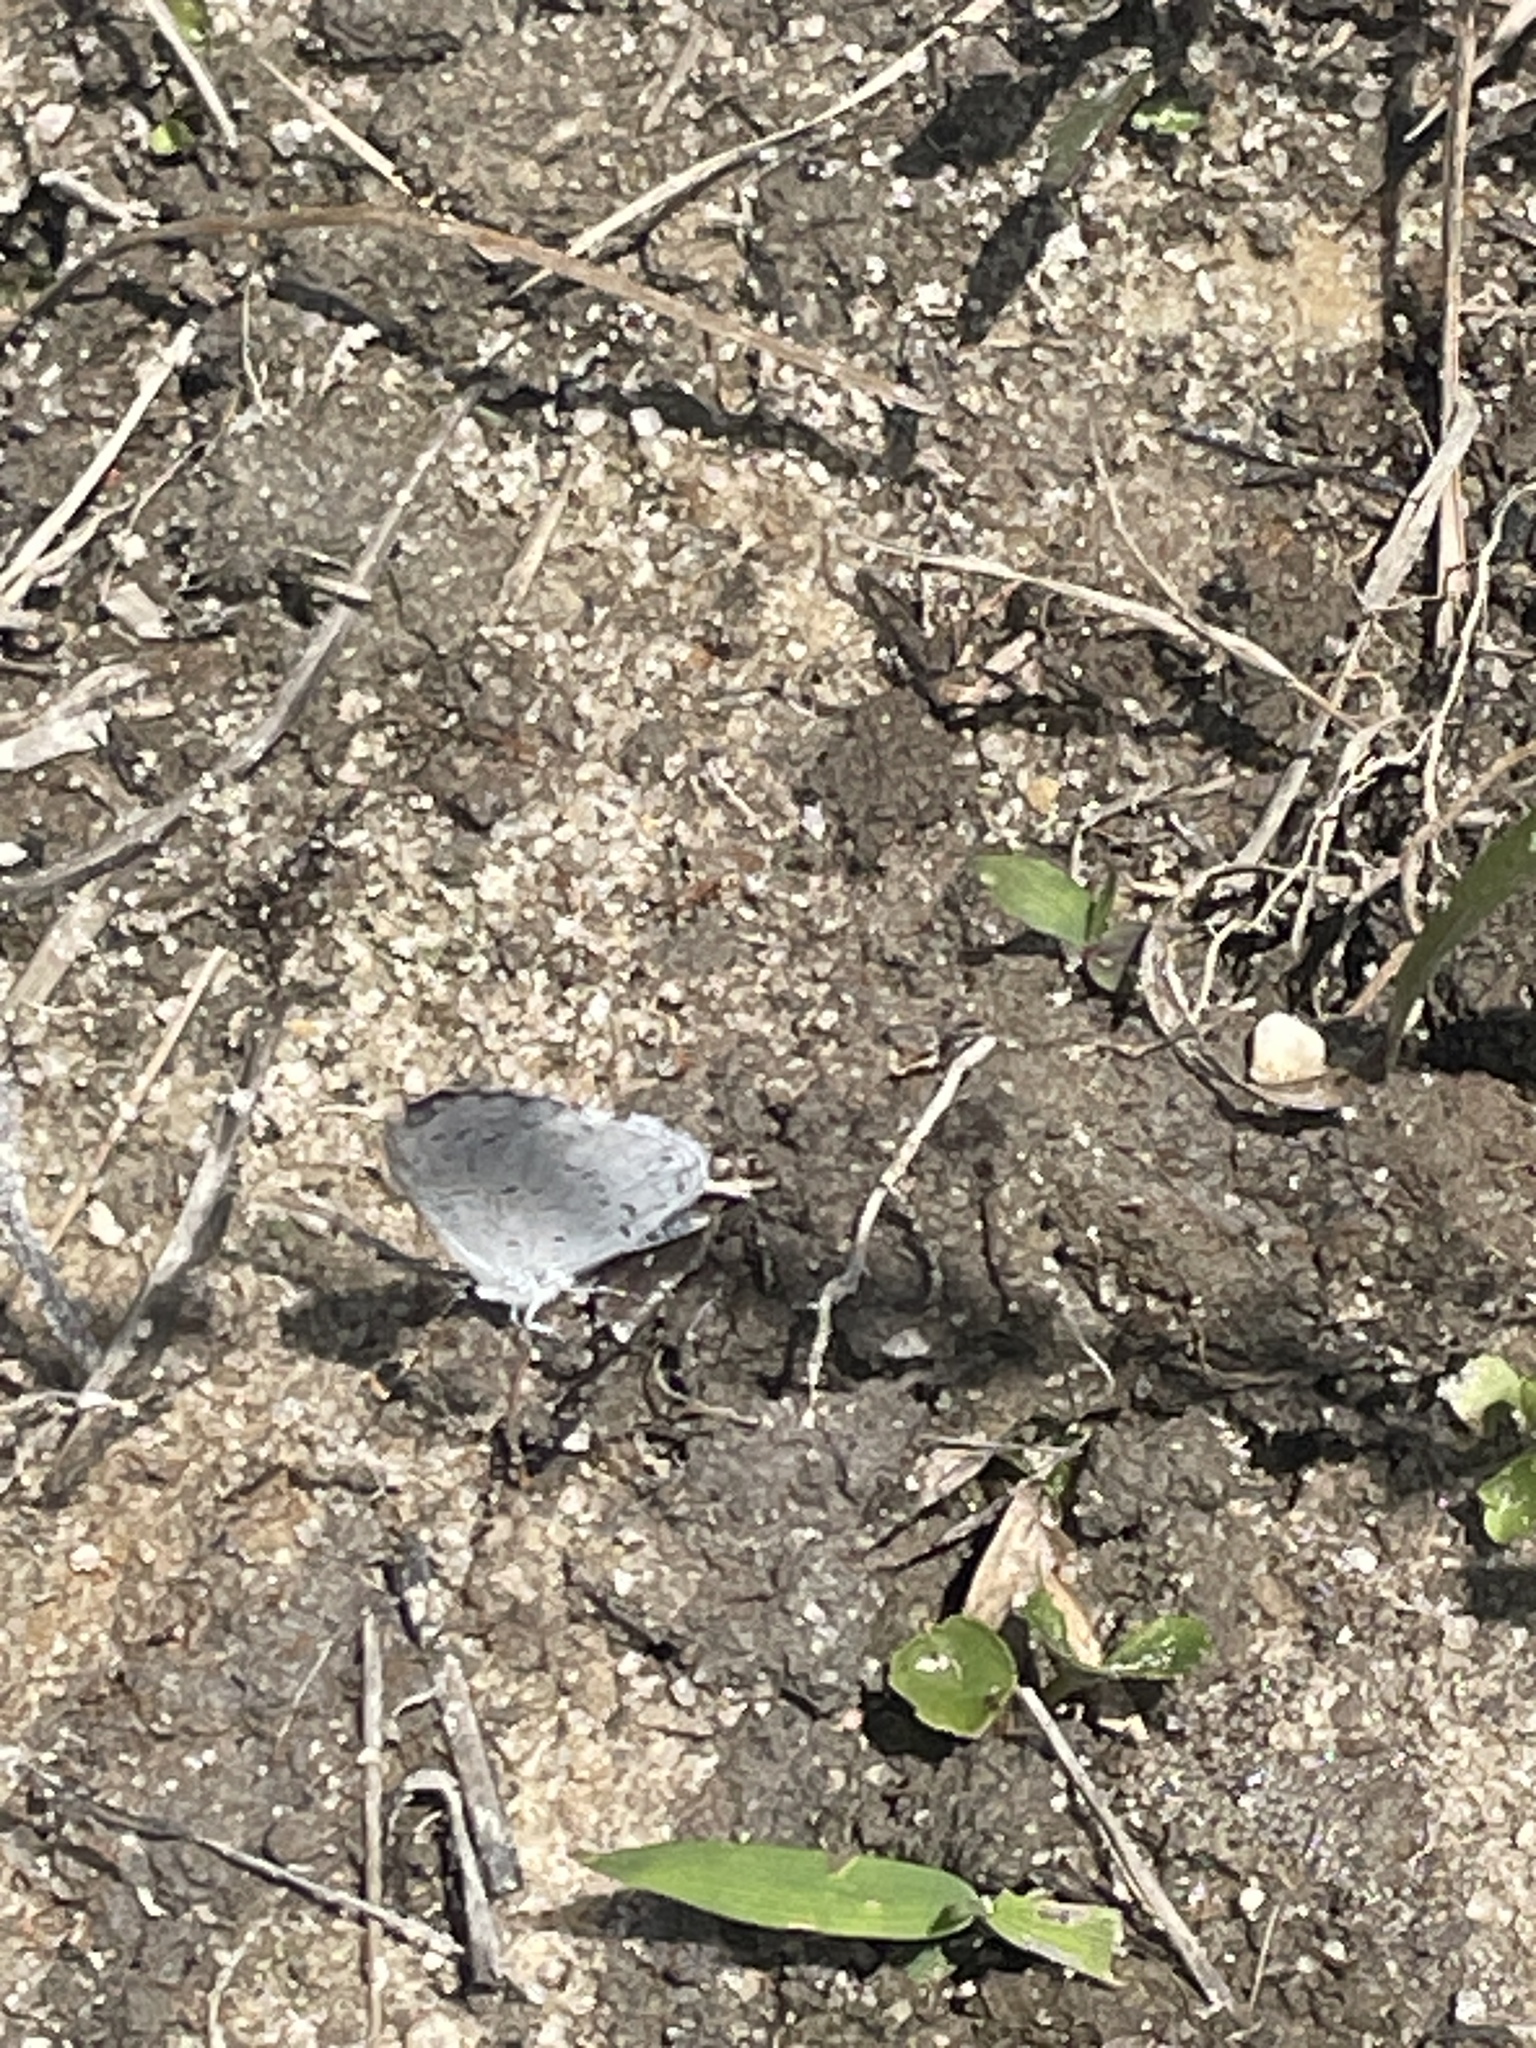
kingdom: Animalia
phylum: Arthropoda
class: Insecta
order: Lepidoptera
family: Lycaenidae
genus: Cyaniris
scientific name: Cyaniris neglecta
